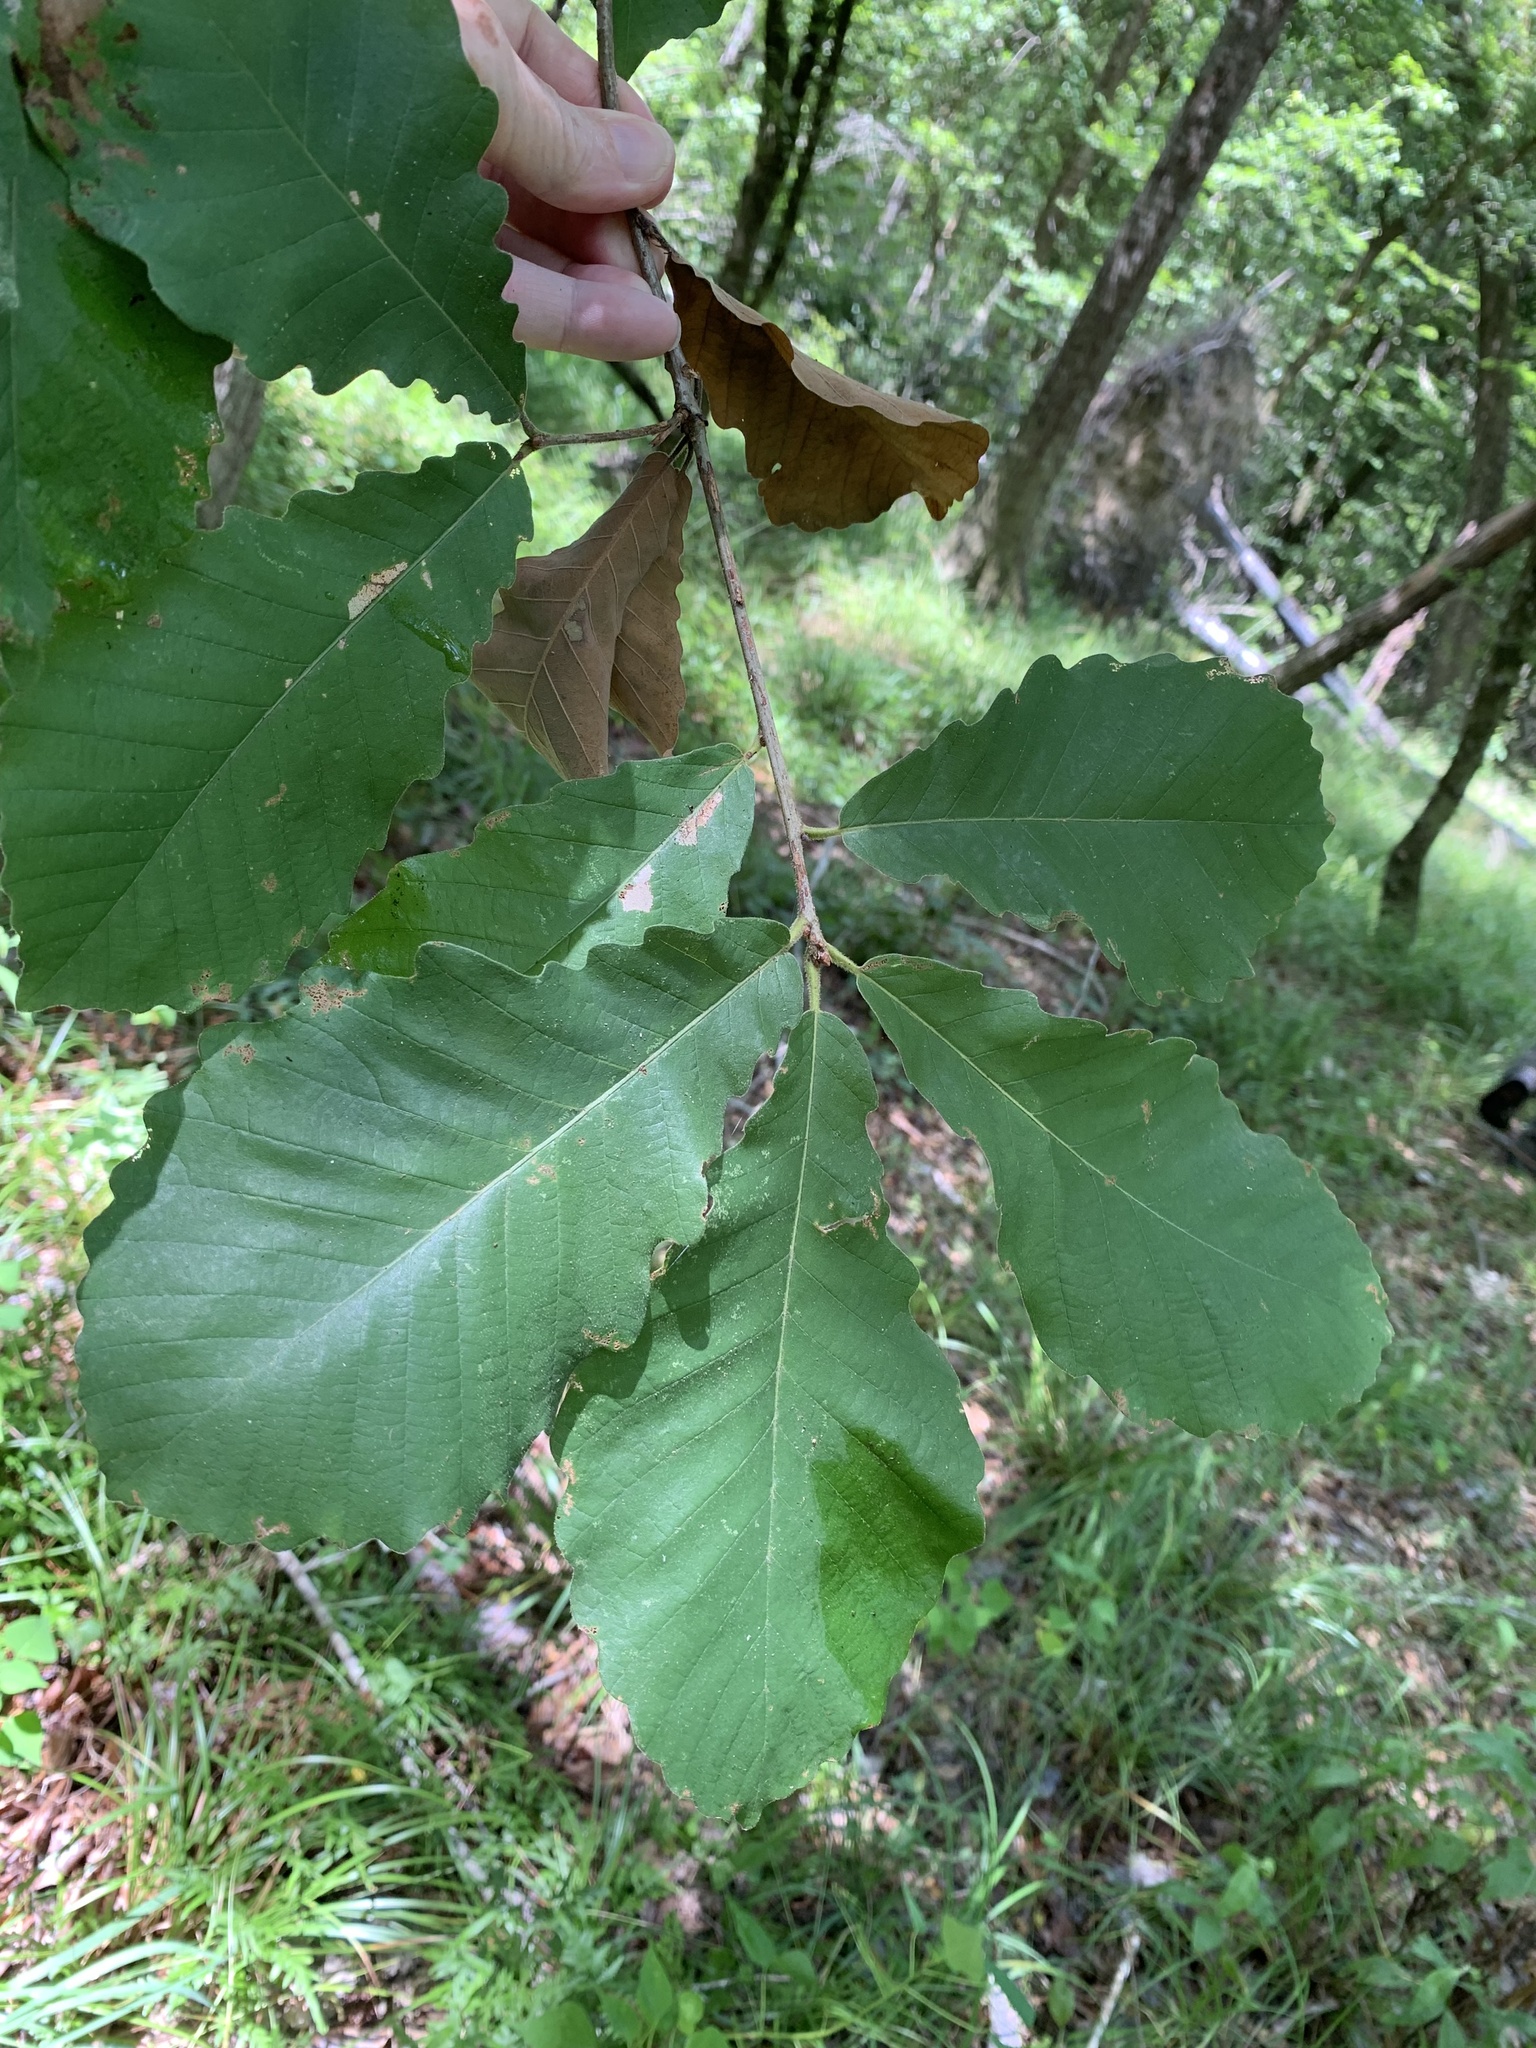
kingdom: Plantae
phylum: Tracheophyta
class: Magnoliopsida
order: Fagales
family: Fagaceae
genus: Quercus
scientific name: Quercus michauxii
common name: Swamp chestnut oak
